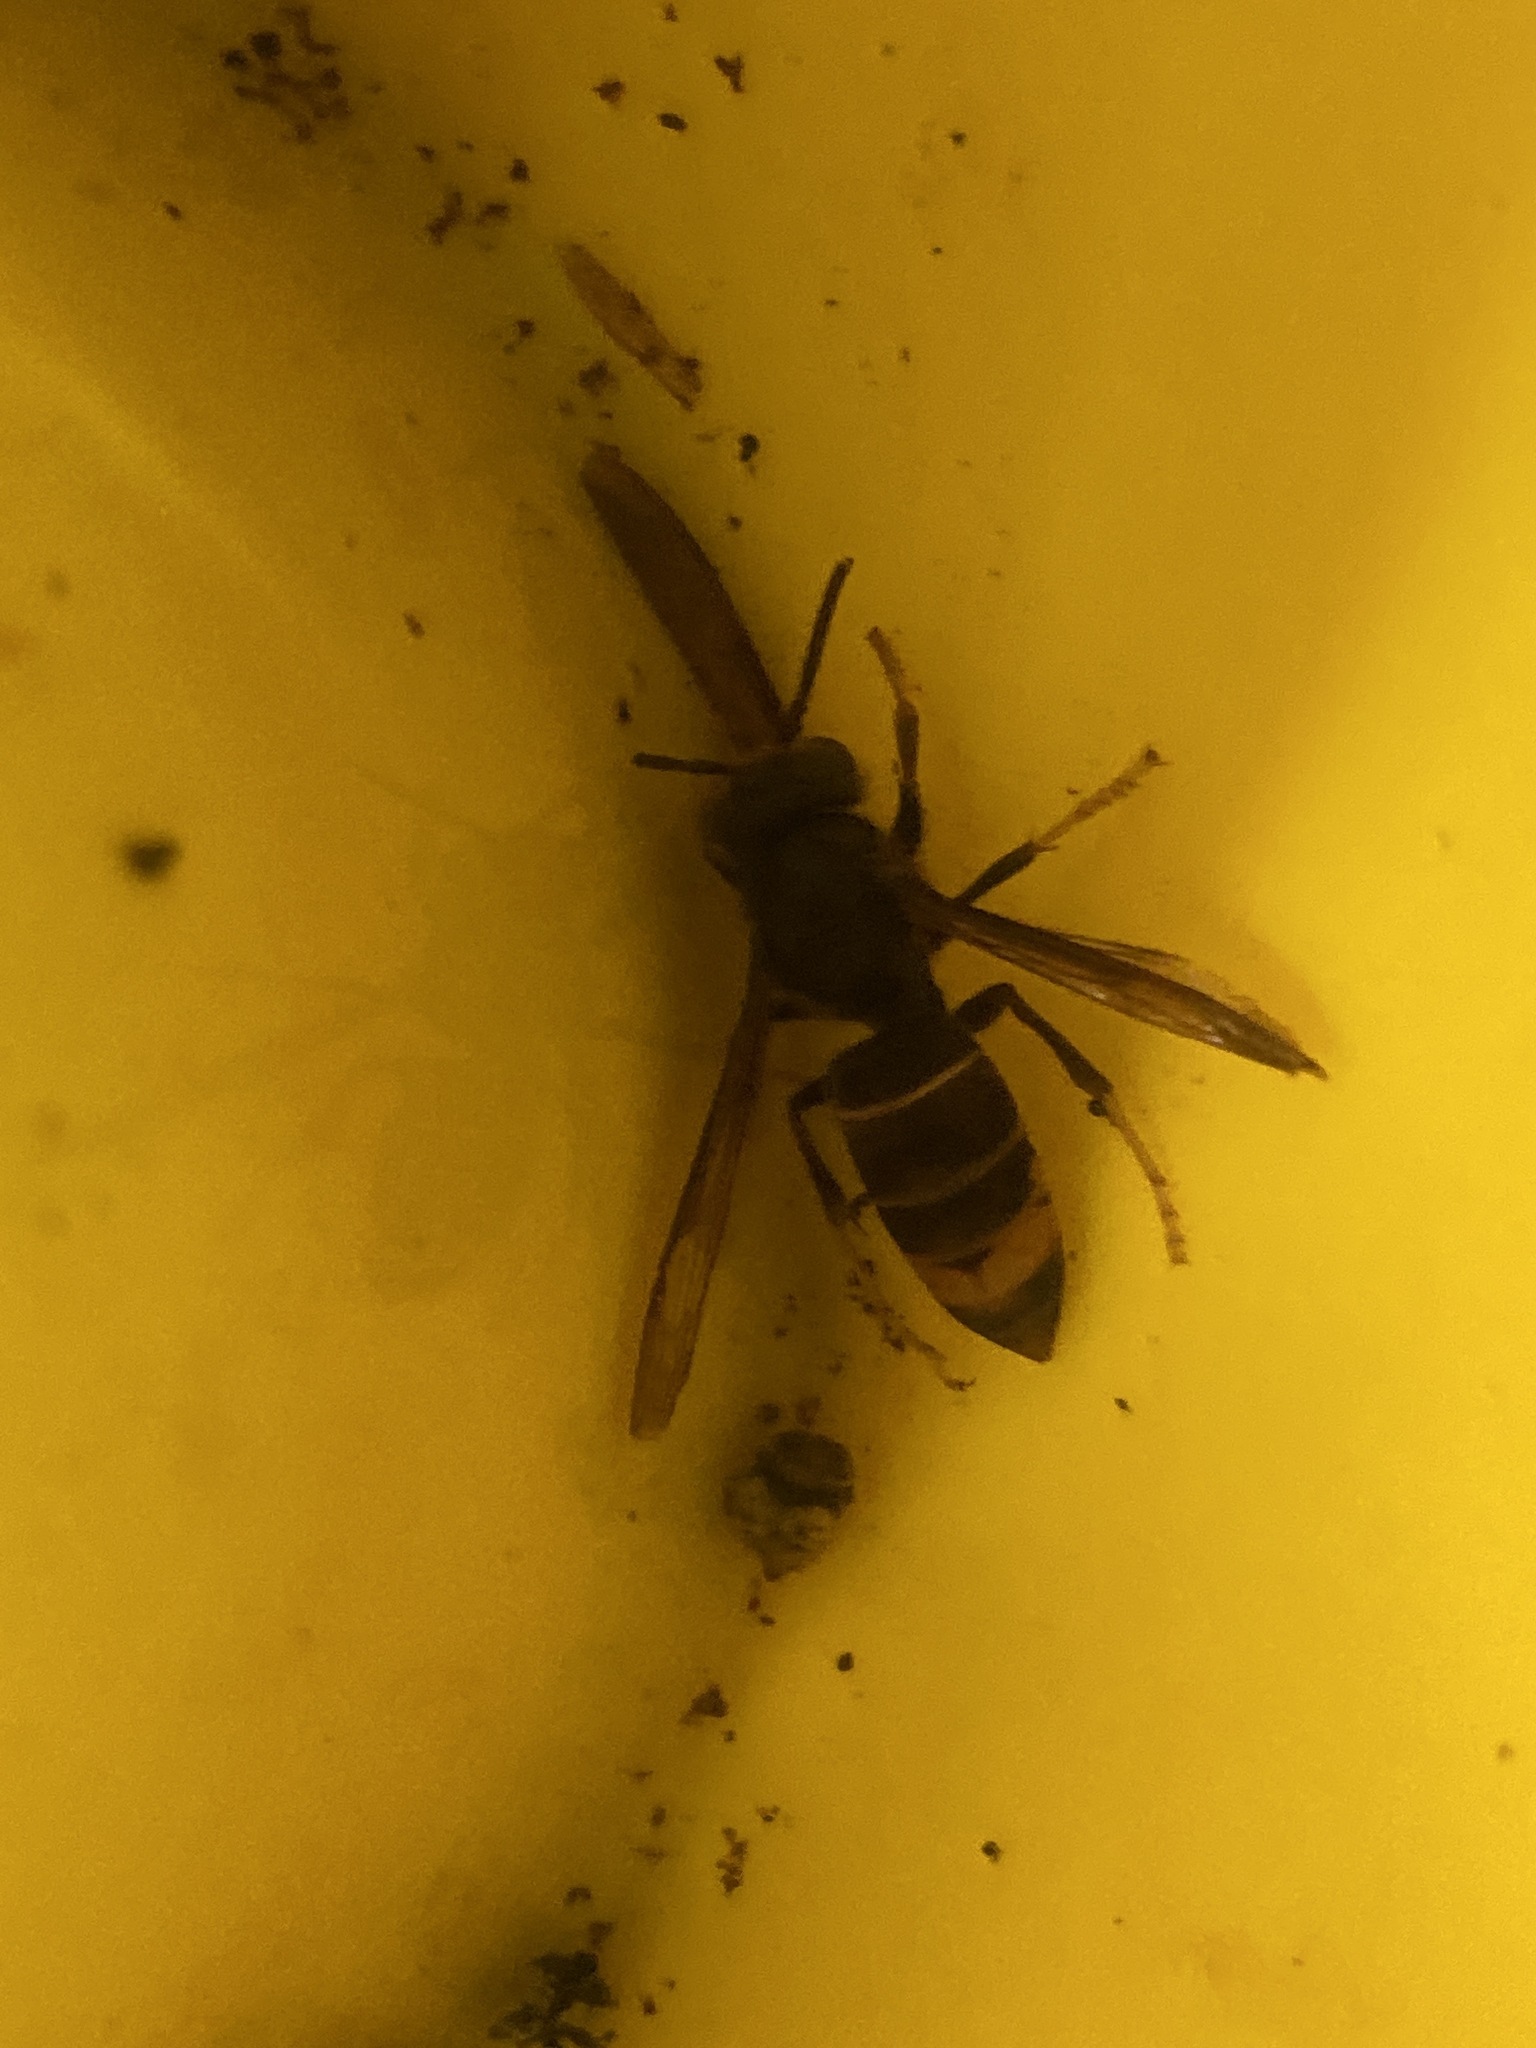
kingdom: Animalia
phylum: Arthropoda
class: Insecta
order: Hymenoptera
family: Vespidae
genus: Vespa
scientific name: Vespa velutina
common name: Asian hornet
